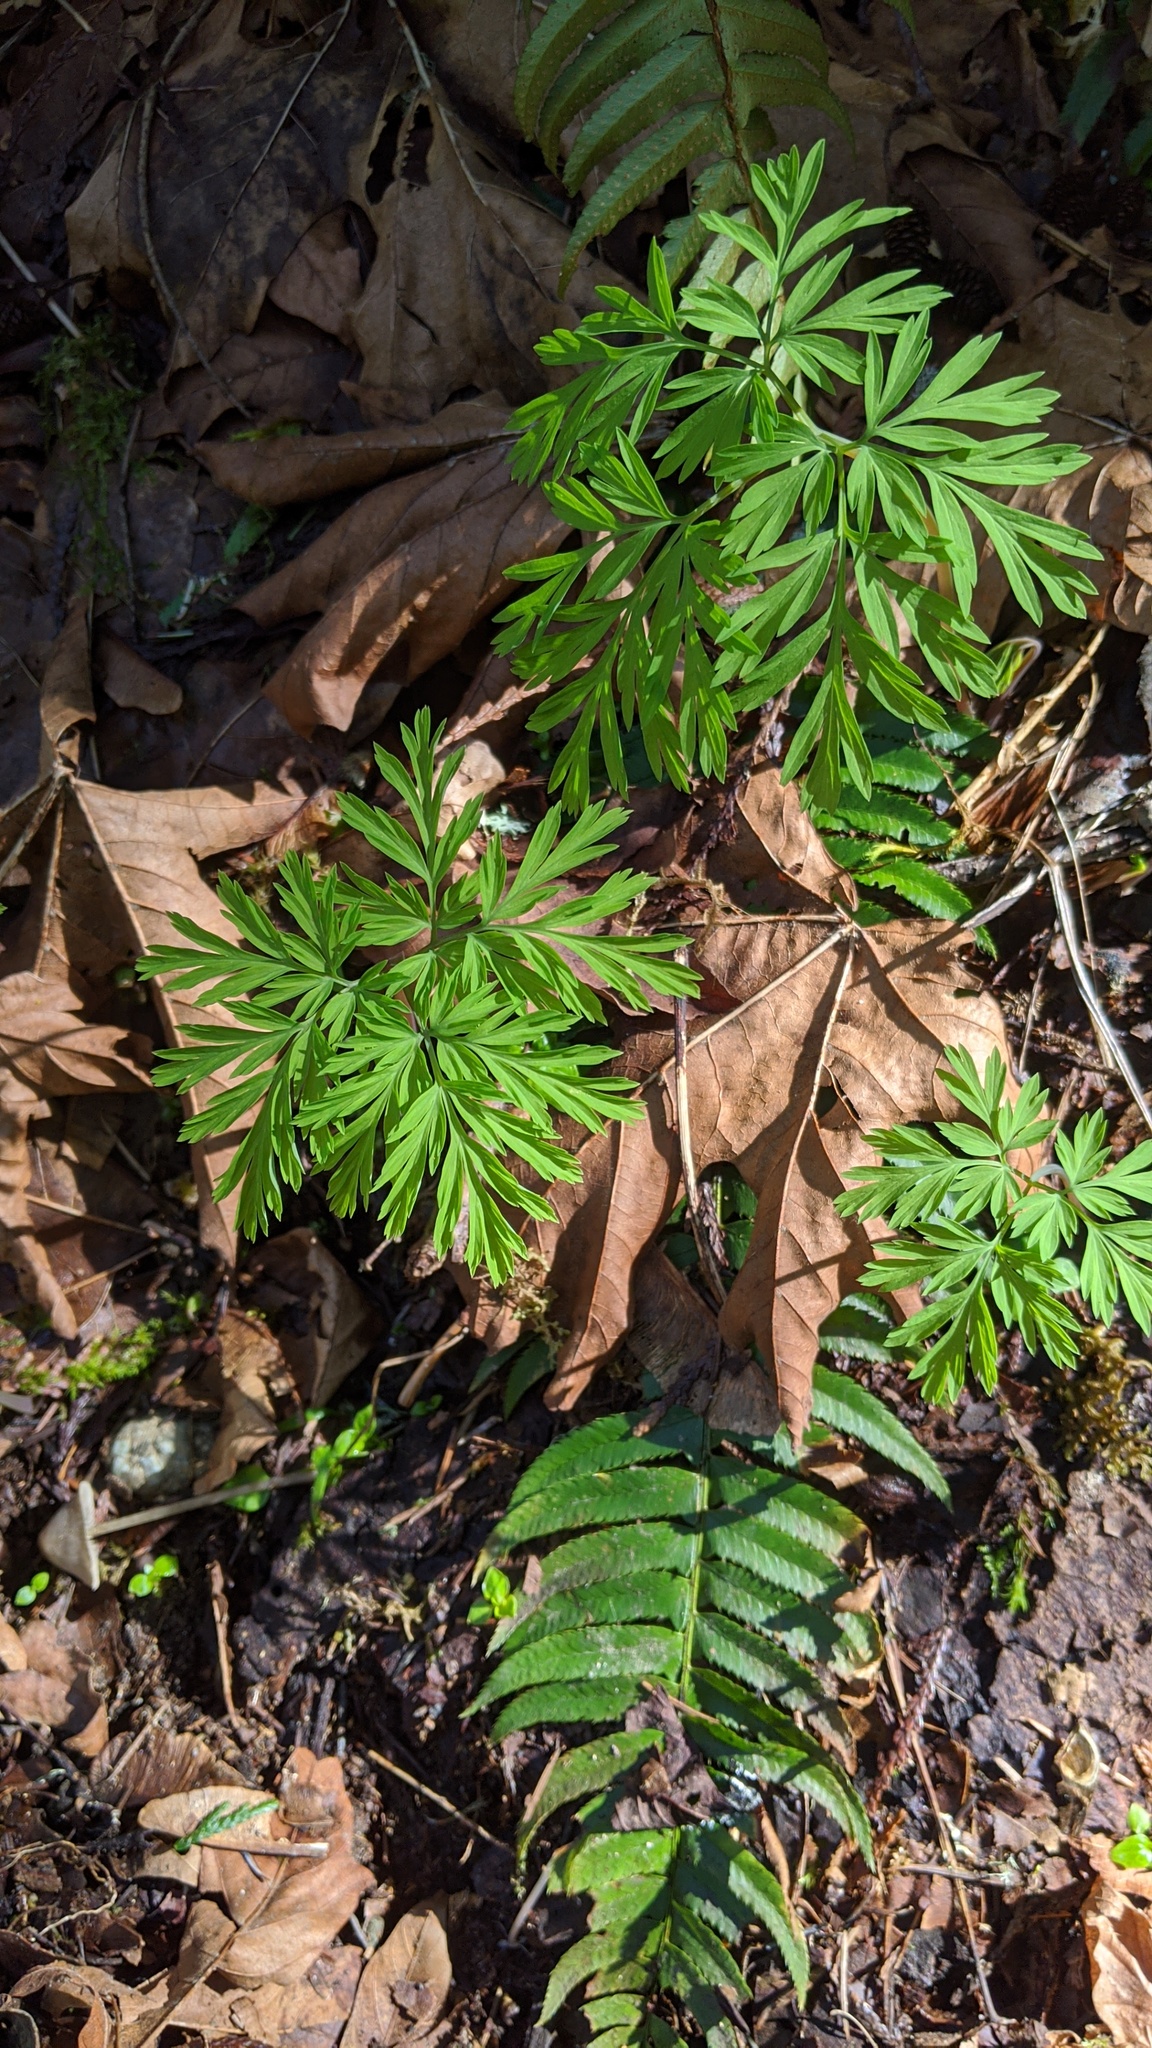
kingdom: Plantae
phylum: Tracheophyta
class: Magnoliopsida
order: Ranunculales
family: Papaveraceae
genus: Dicentra
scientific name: Dicentra formosa
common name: Bleeding-heart
